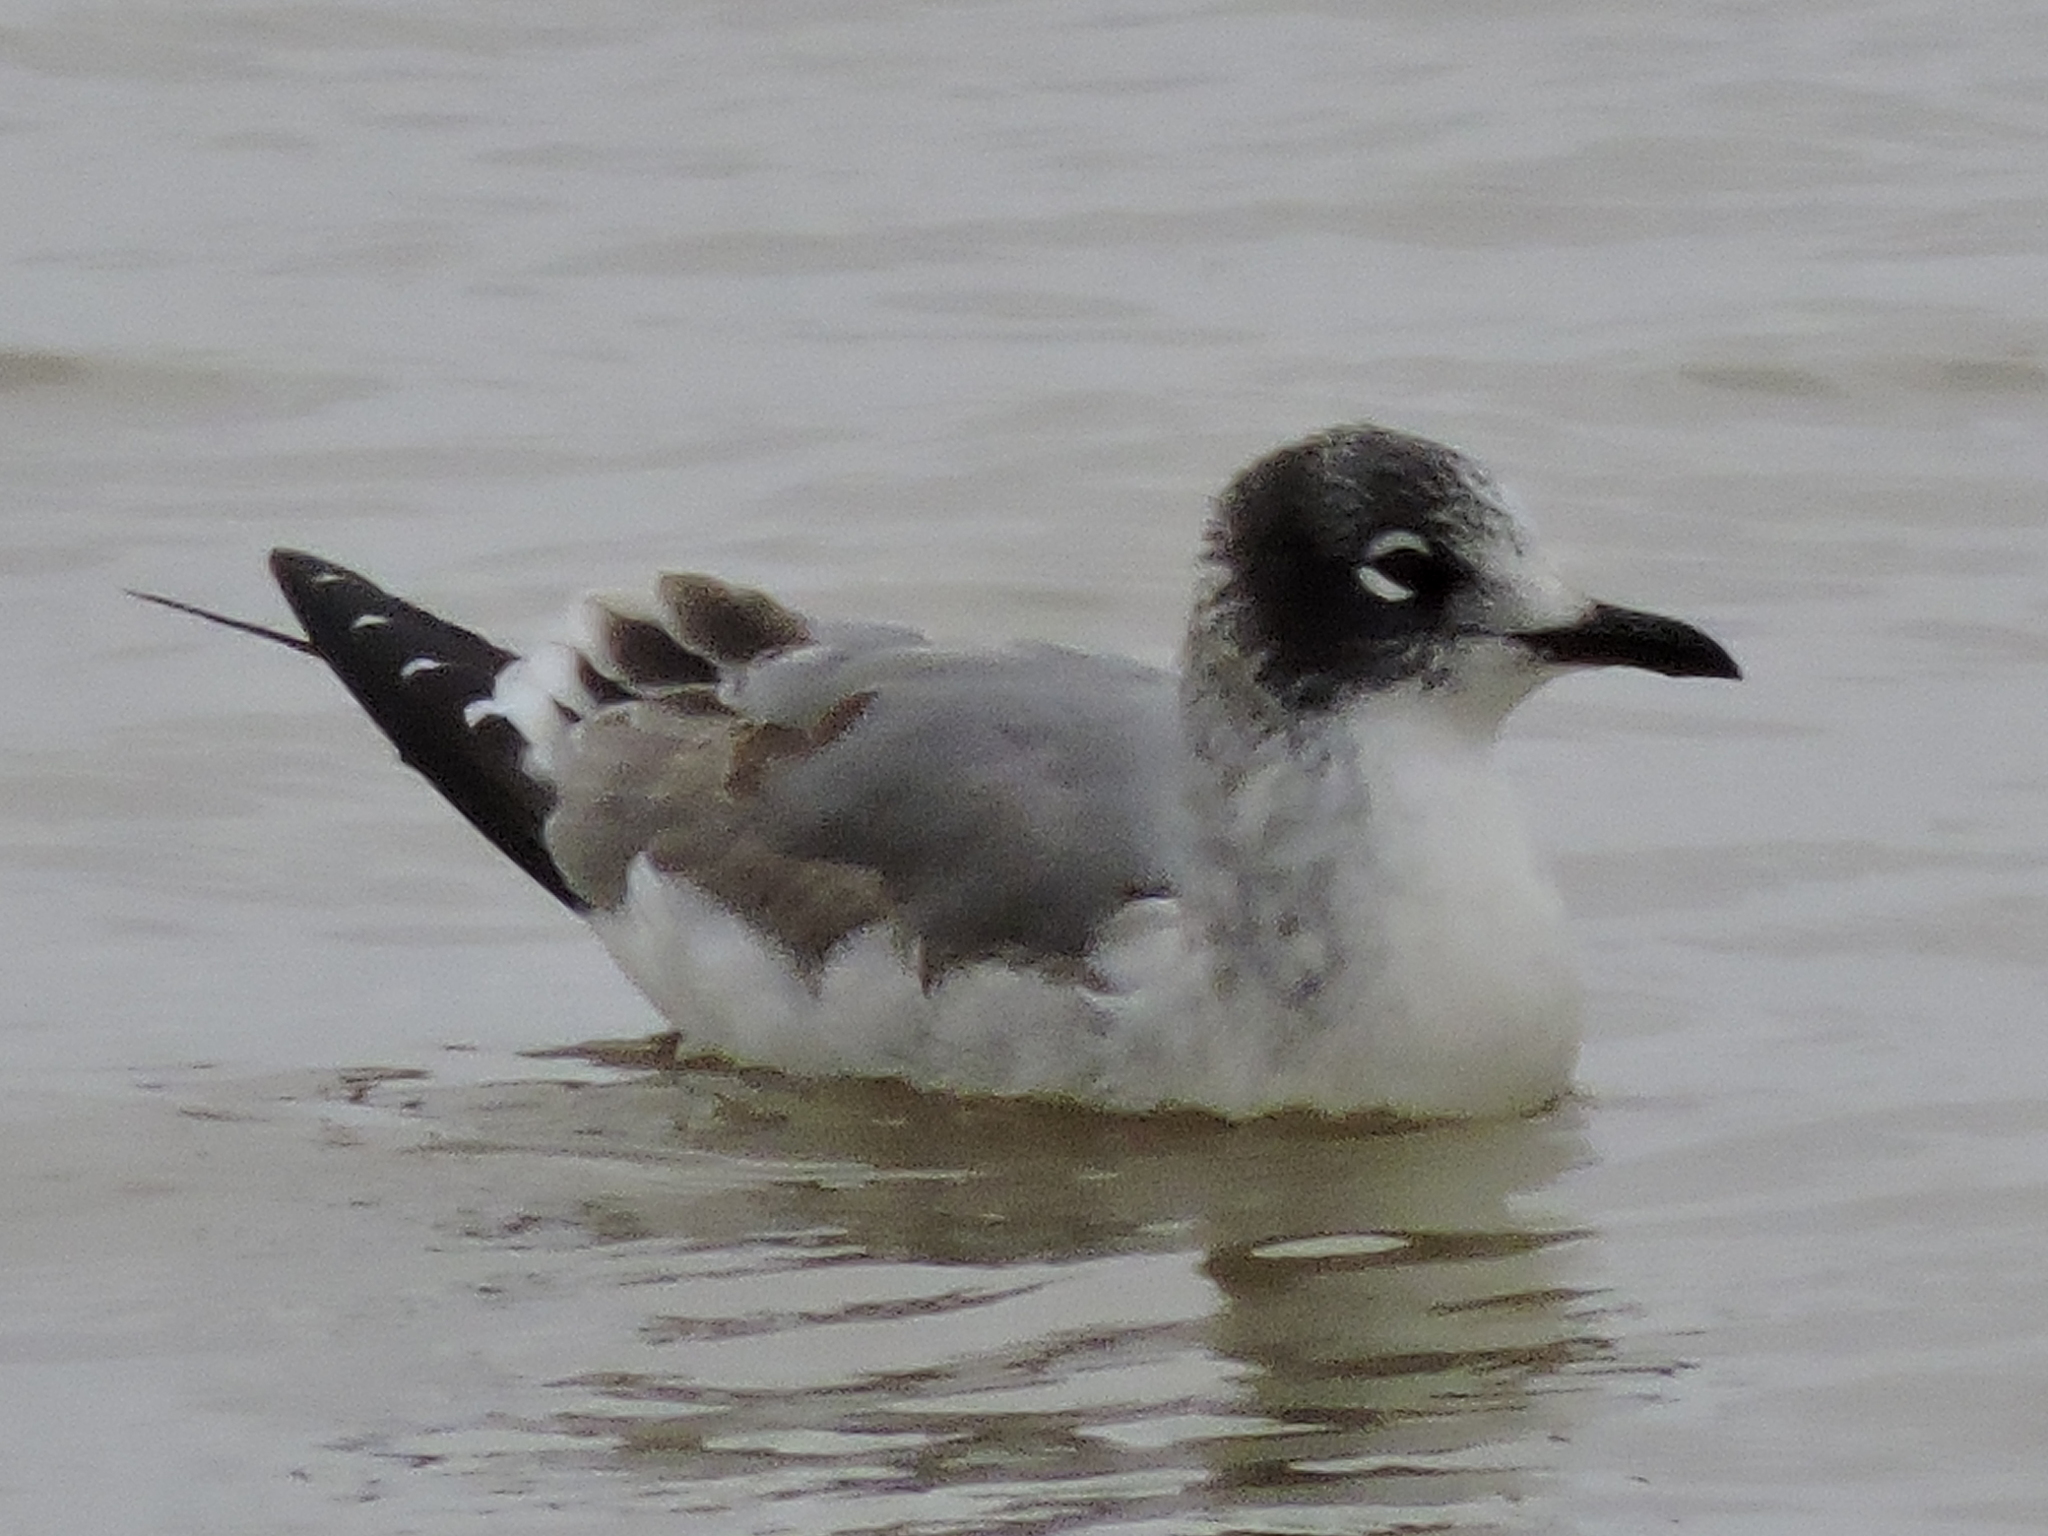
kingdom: Animalia
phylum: Chordata
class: Aves
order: Charadriiformes
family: Laridae
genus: Leucophaeus
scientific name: Leucophaeus pipixcan
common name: Franklin's gull
